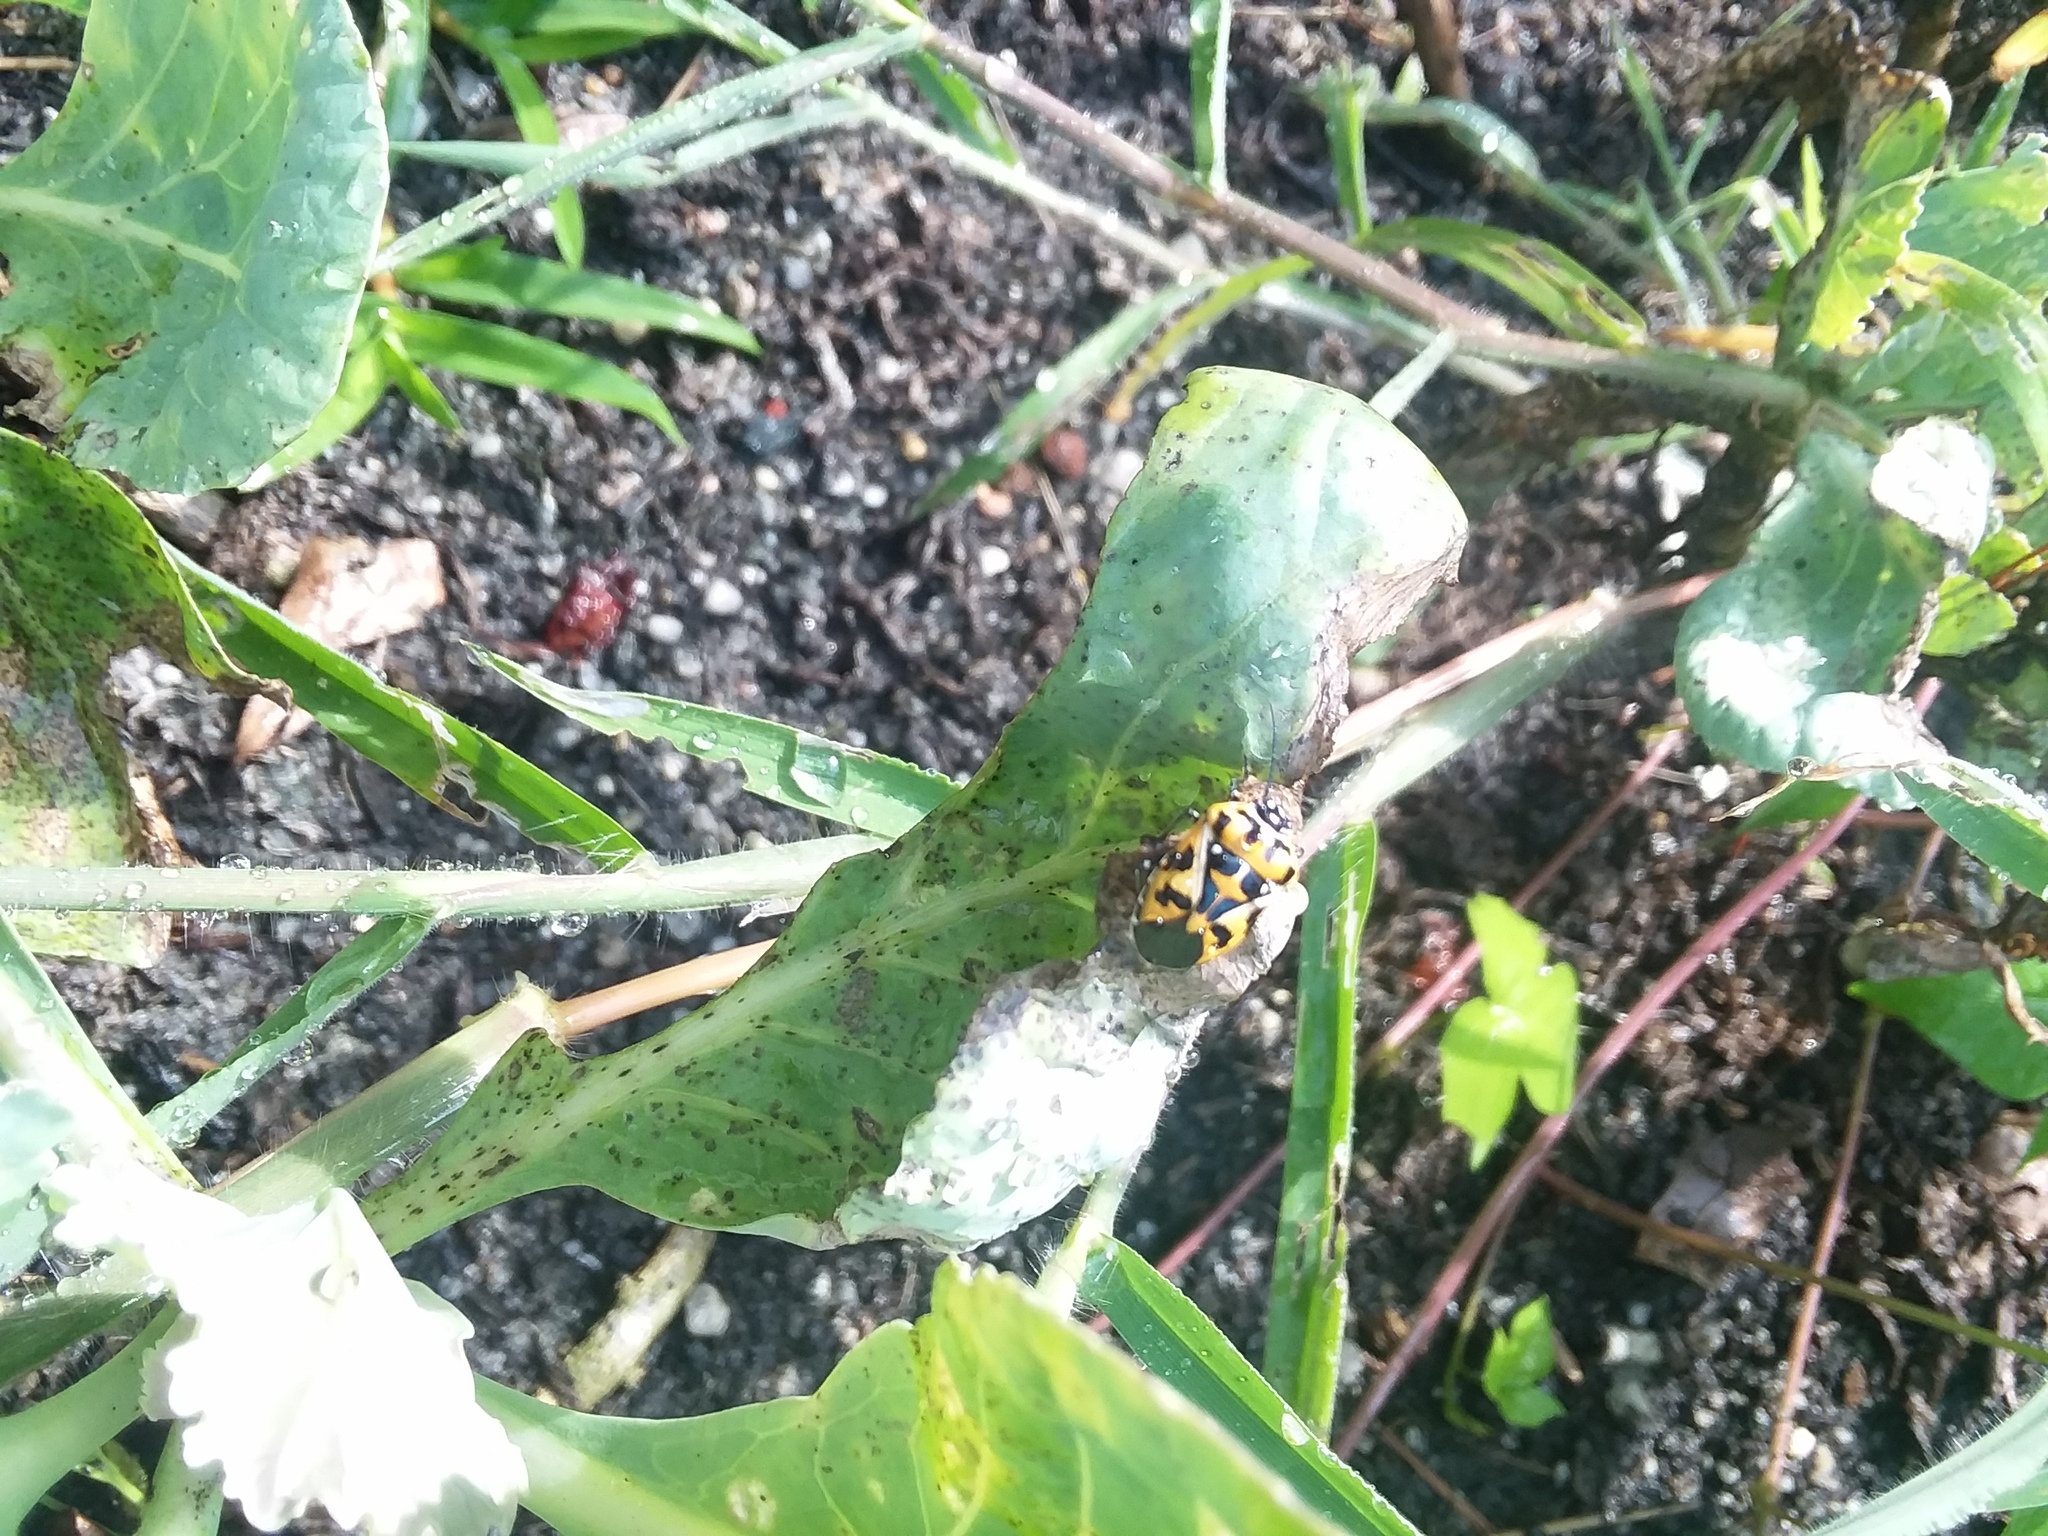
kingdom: Animalia
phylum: Arthropoda
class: Insecta
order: Hemiptera
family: Pentatomidae
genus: Murgantia
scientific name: Murgantia histrionica
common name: Harlequin bug
